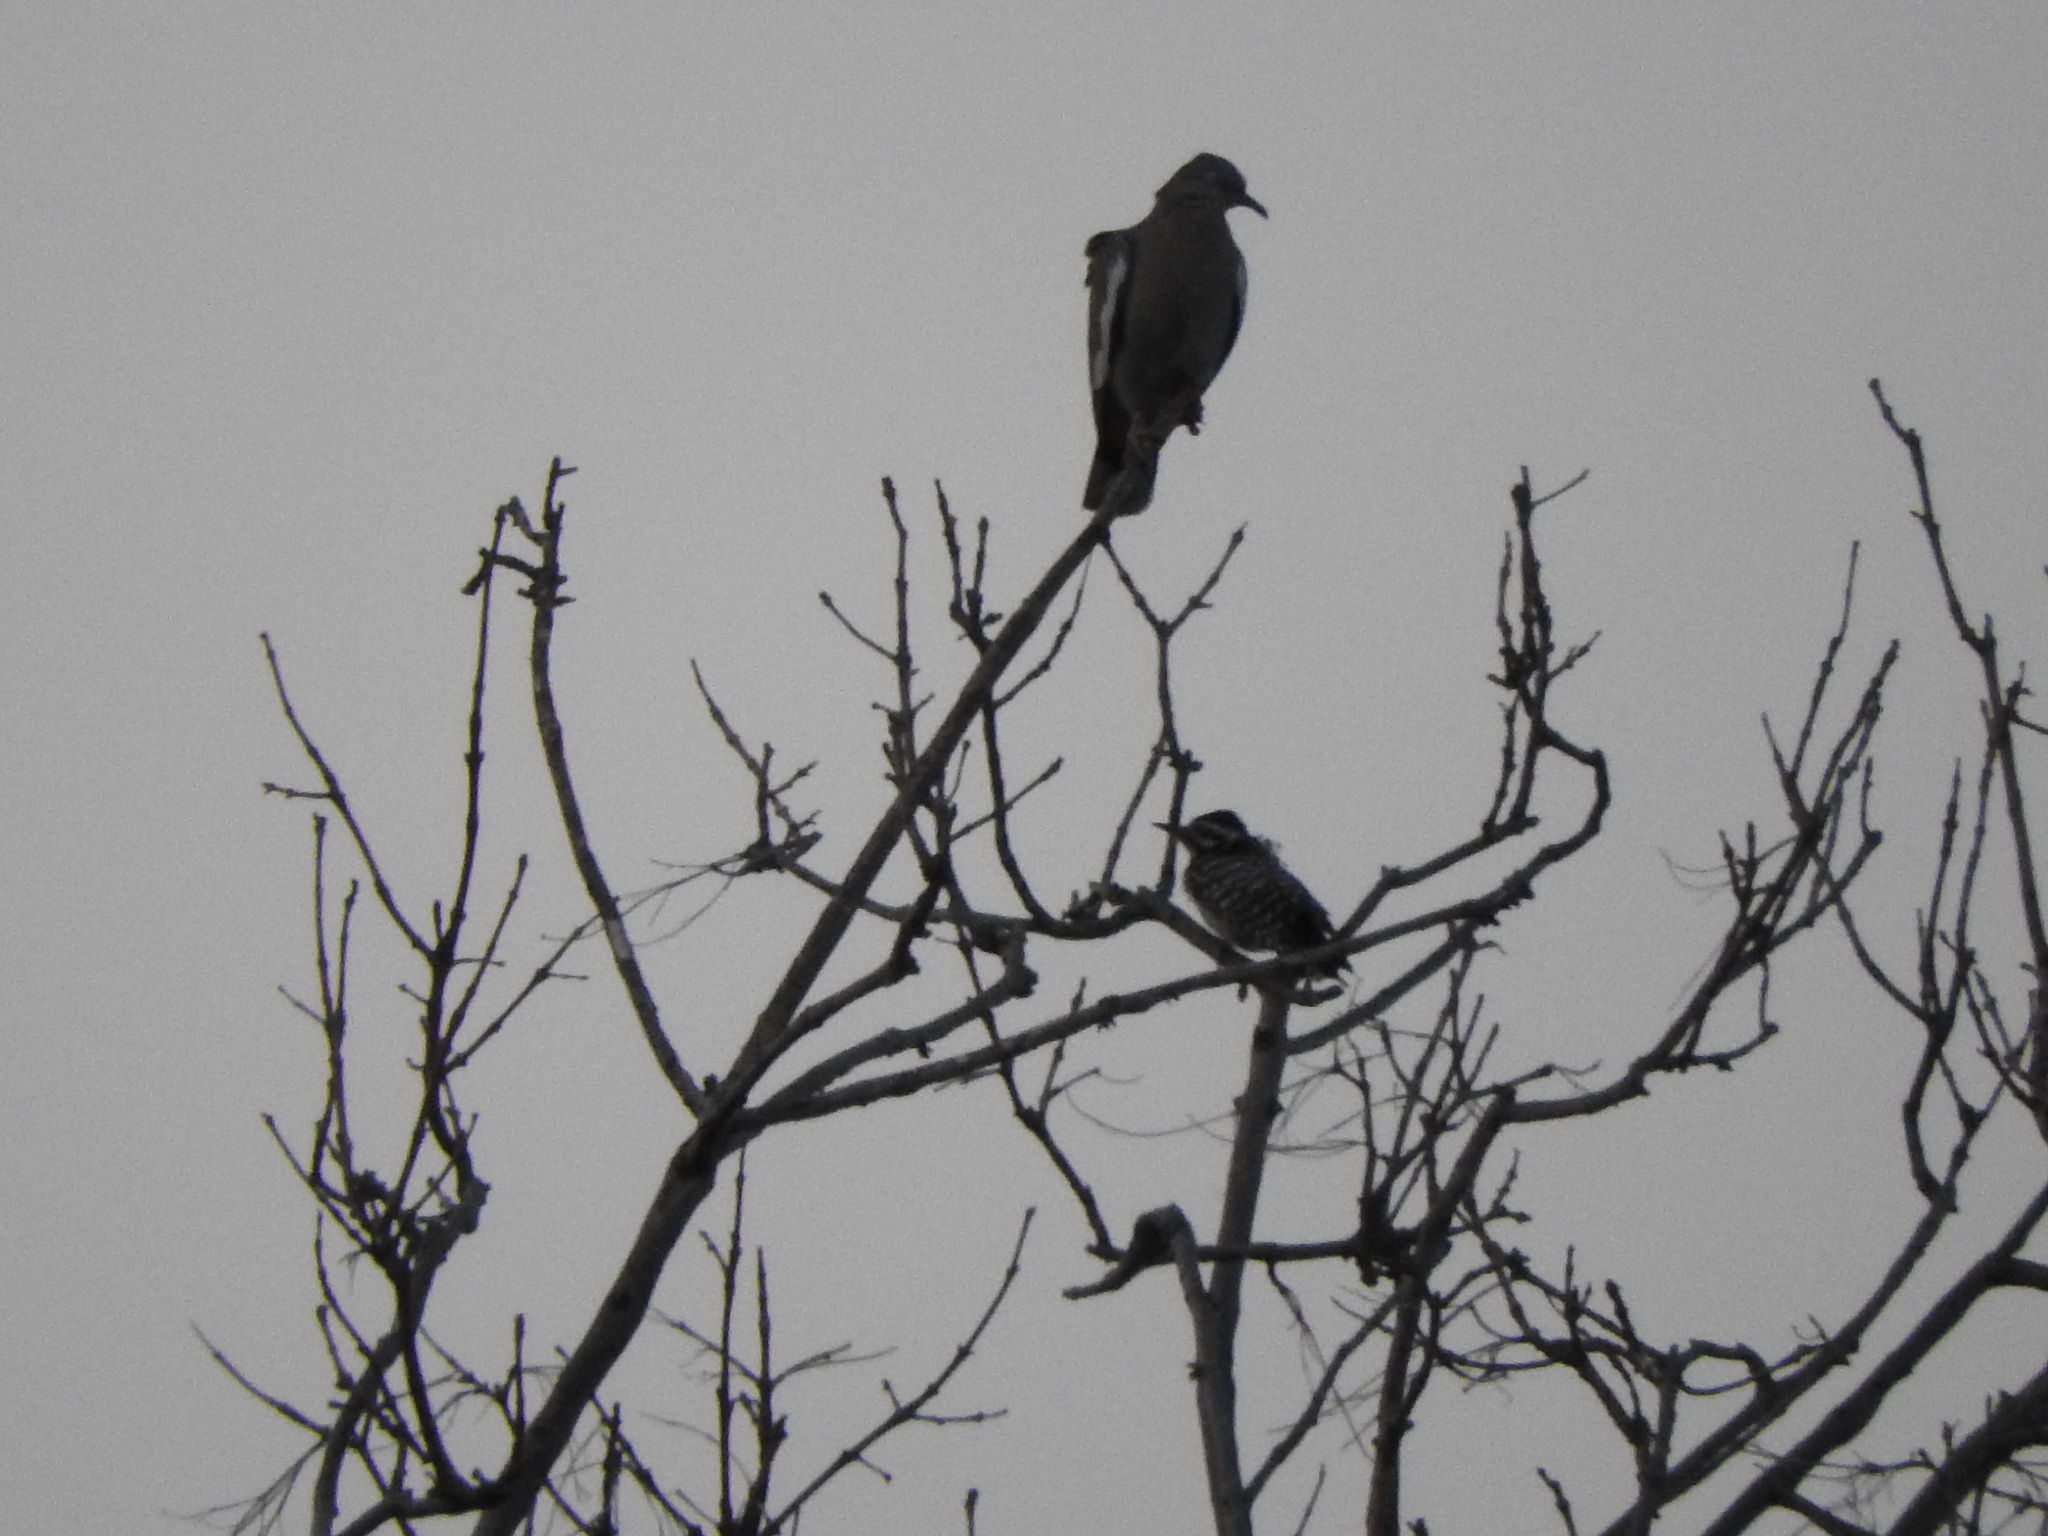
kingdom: Animalia
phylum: Chordata
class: Aves
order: Piciformes
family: Picidae
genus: Dryobates
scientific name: Dryobates scalaris
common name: Ladder-backed woodpecker
